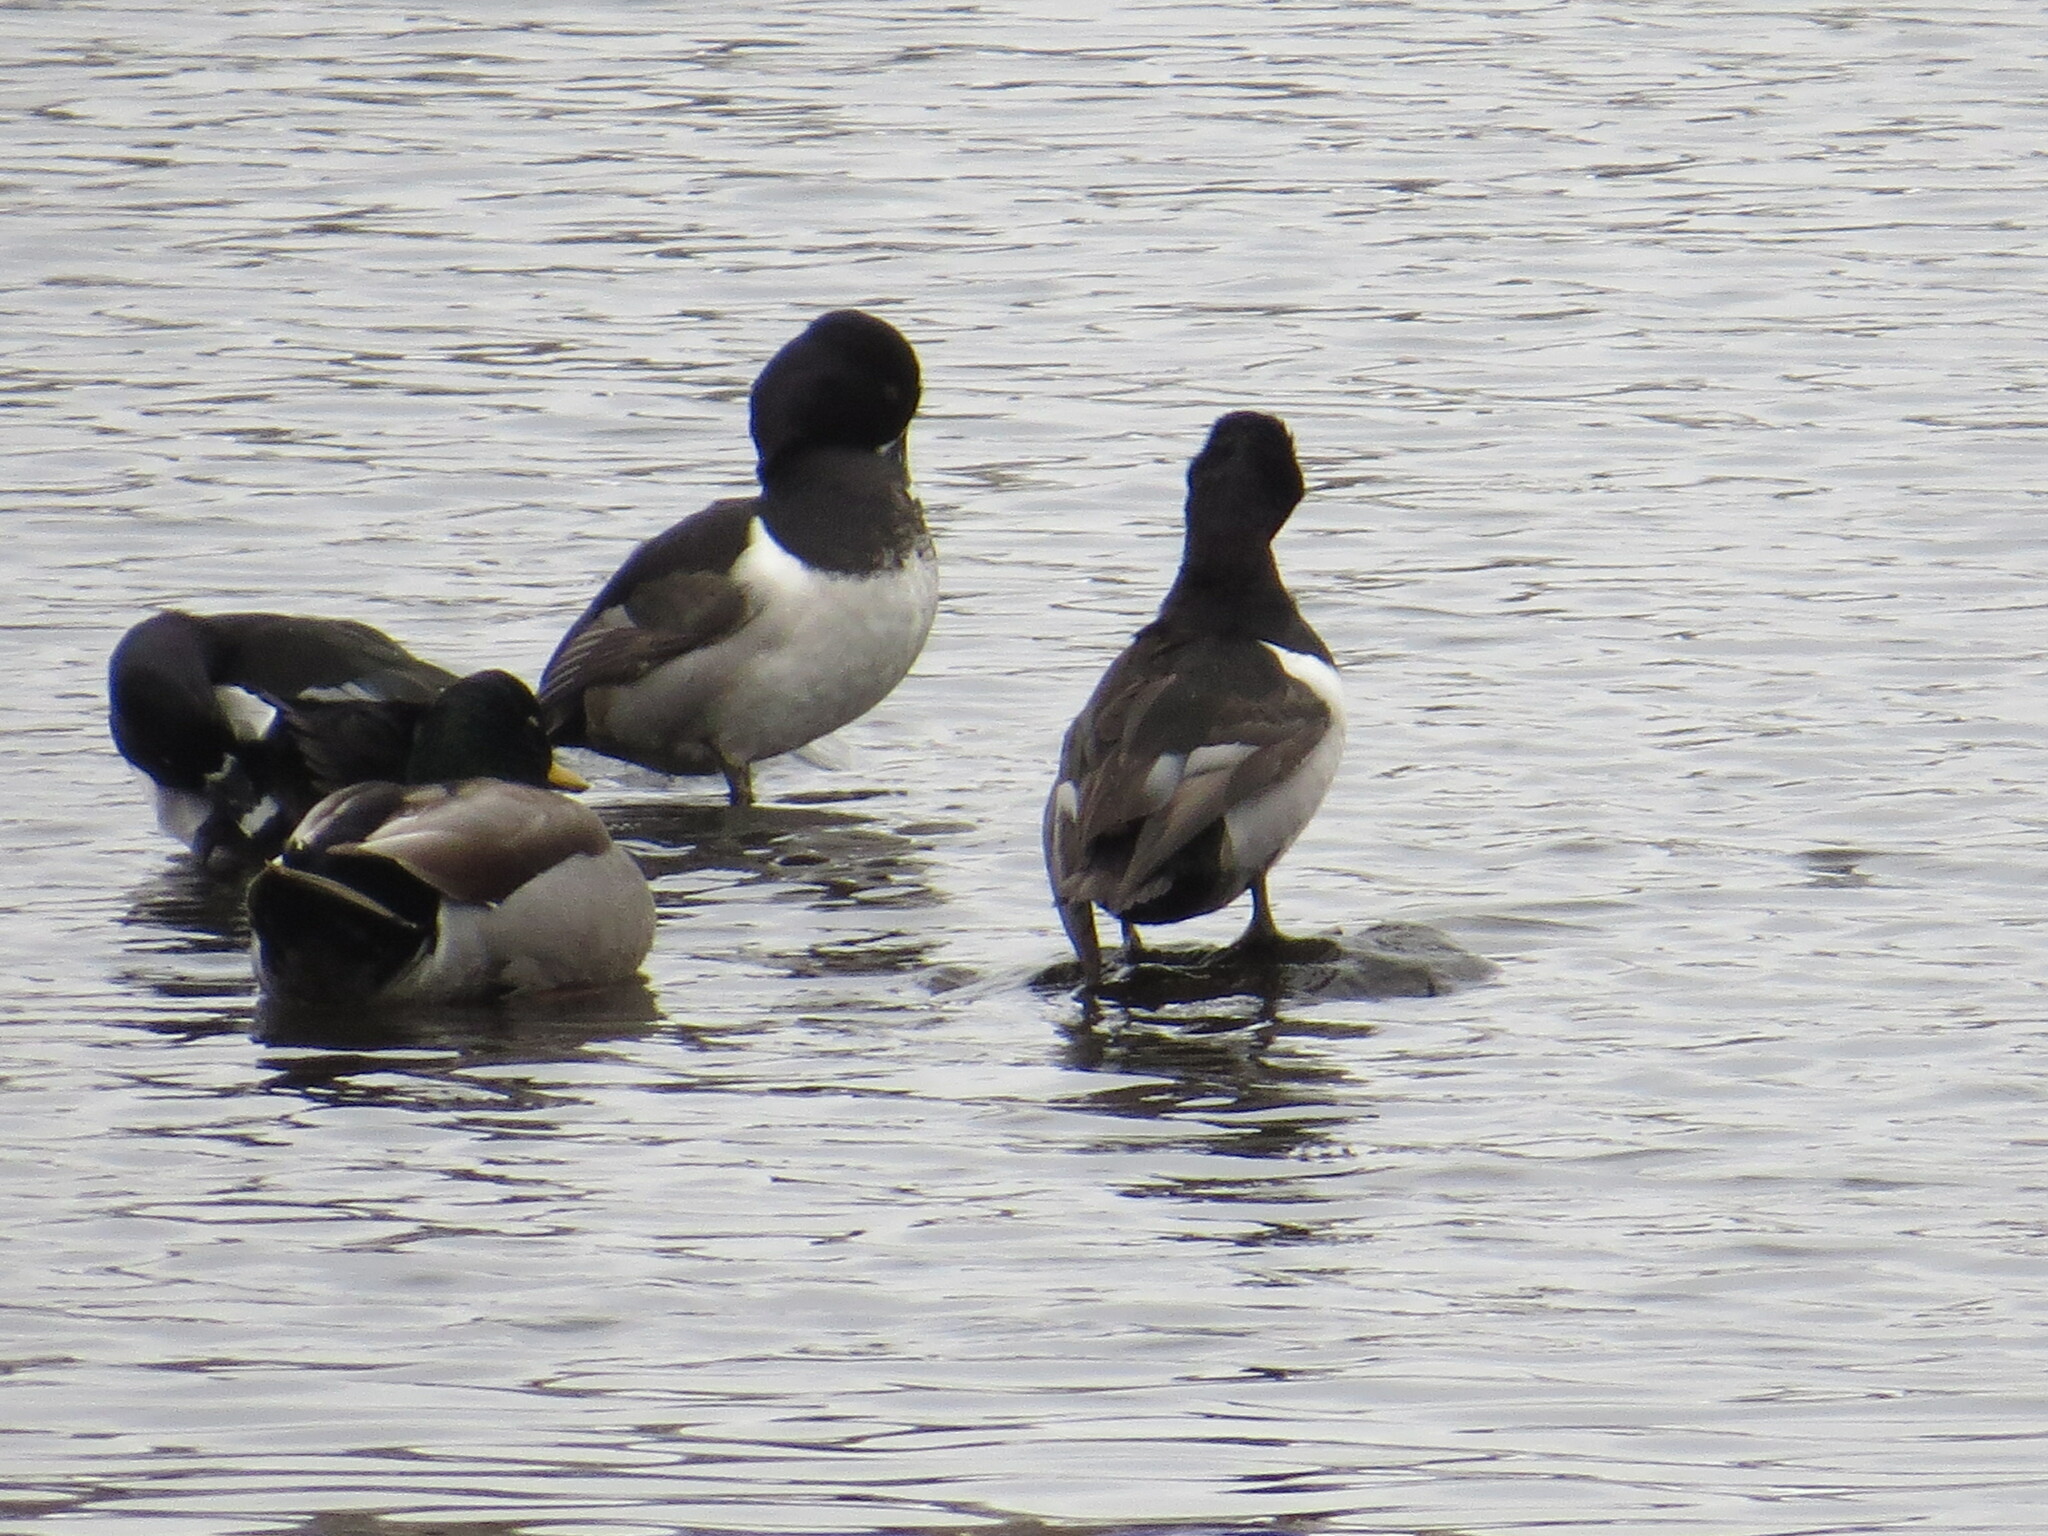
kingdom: Animalia
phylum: Chordata
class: Aves
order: Anseriformes
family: Anatidae
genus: Aythya
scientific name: Aythya collaris
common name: Ring-necked duck
